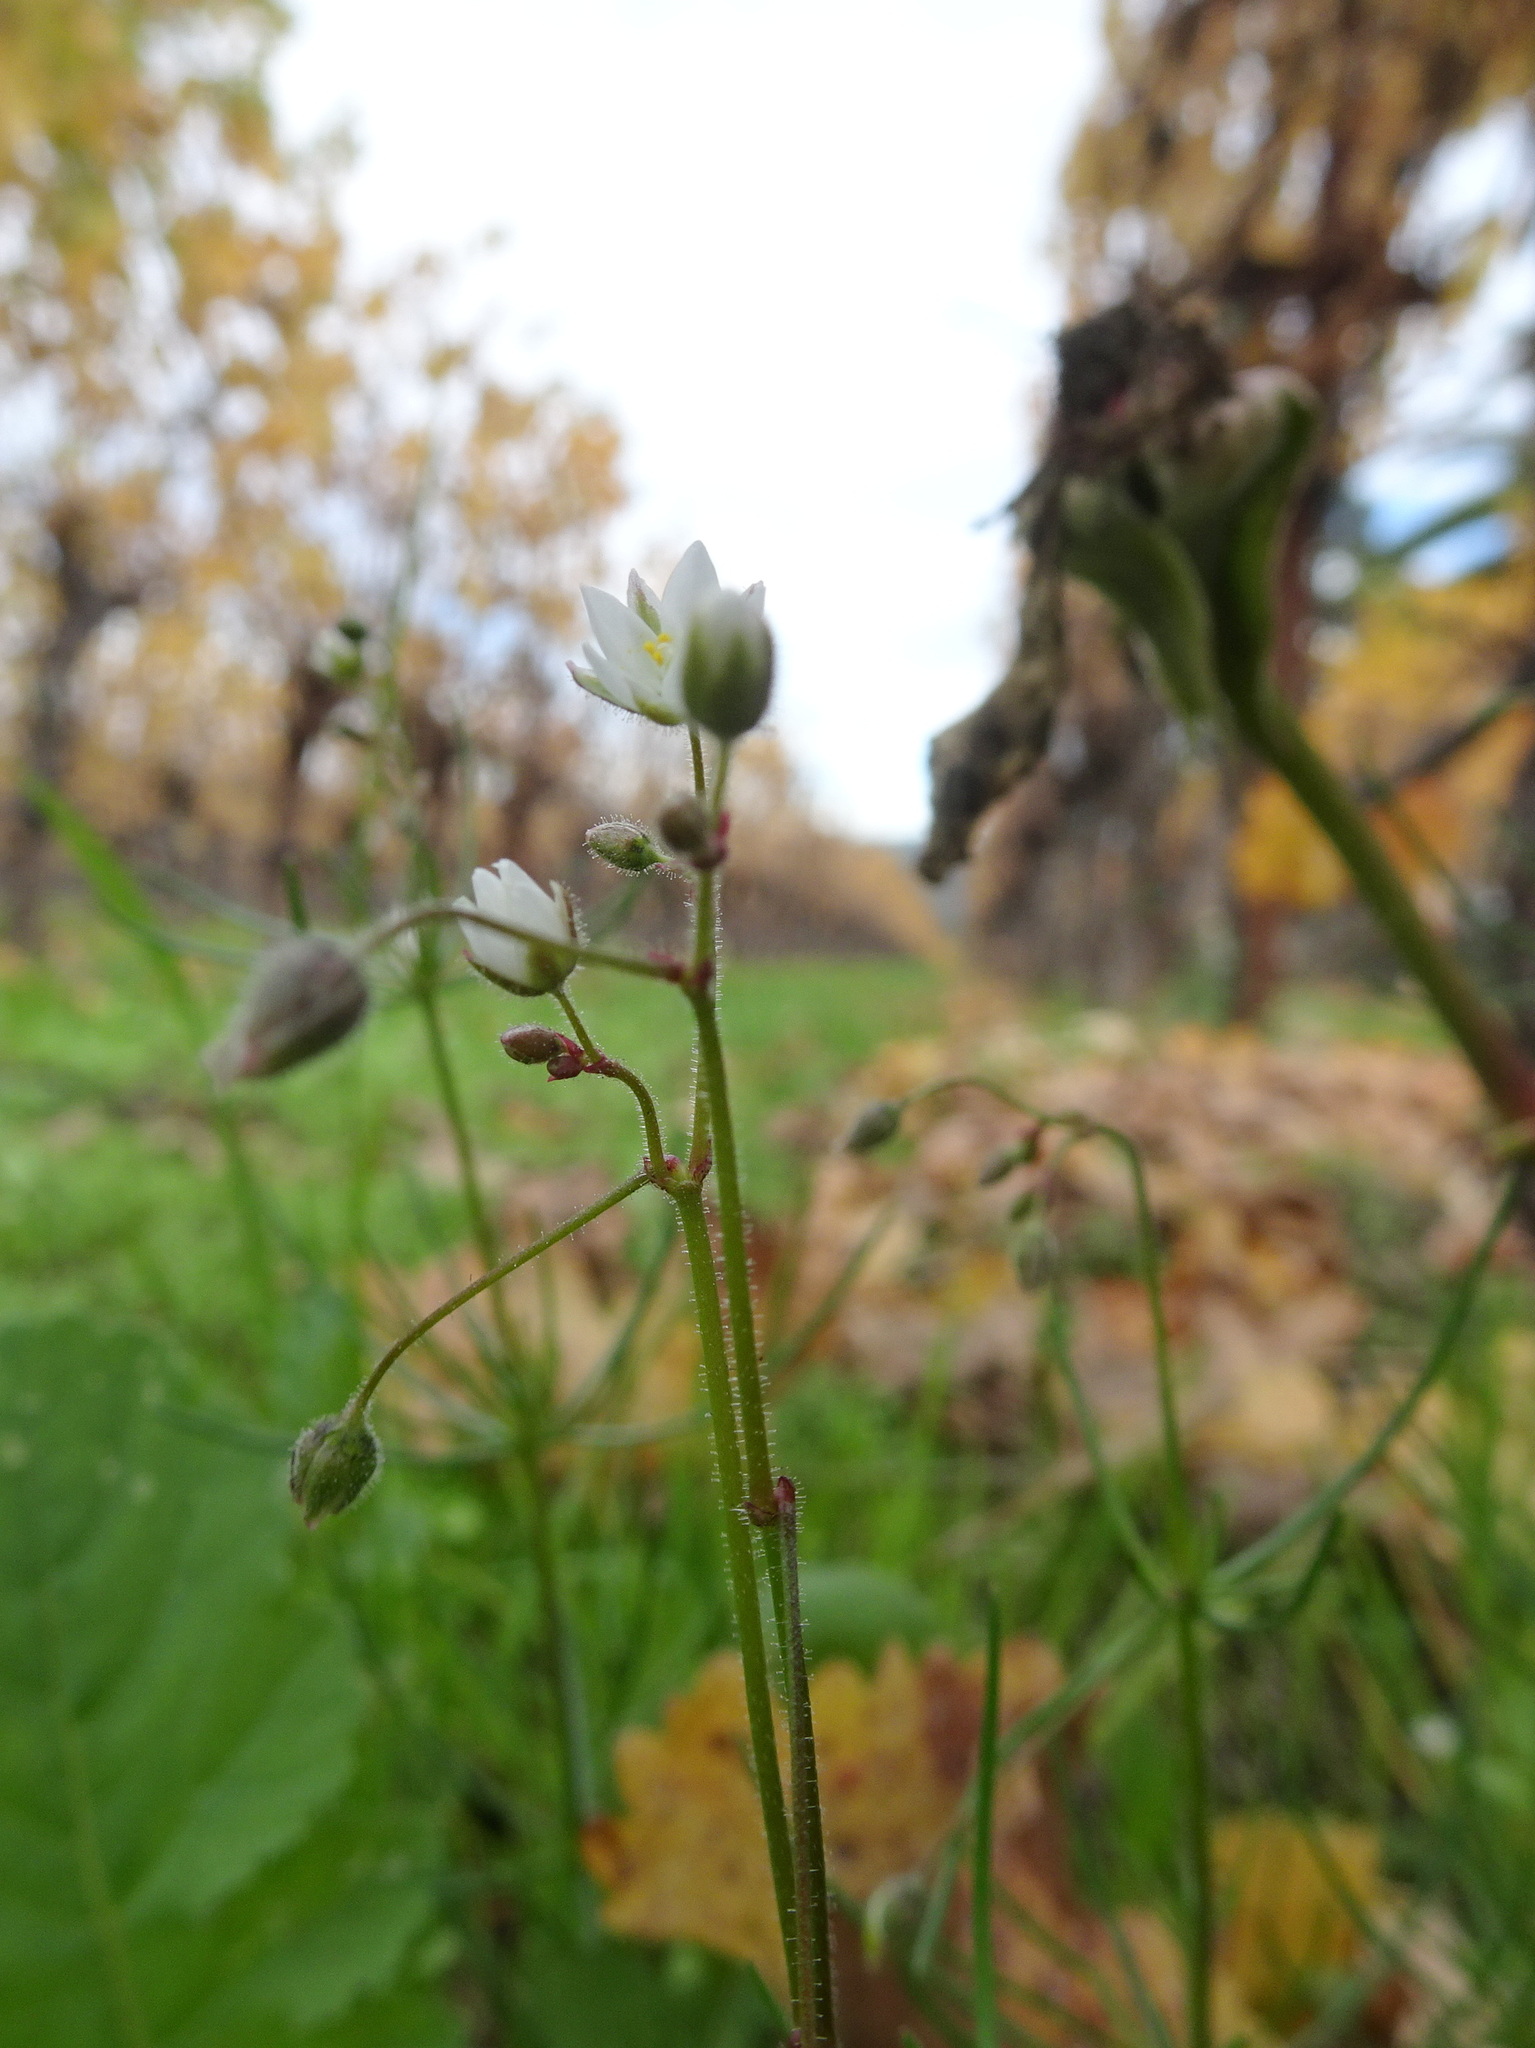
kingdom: Plantae
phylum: Tracheophyta
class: Magnoliopsida
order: Caryophyllales
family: Caryophyllaceae
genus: Spergula
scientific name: Spergula arvensis
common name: Corn spurrey
